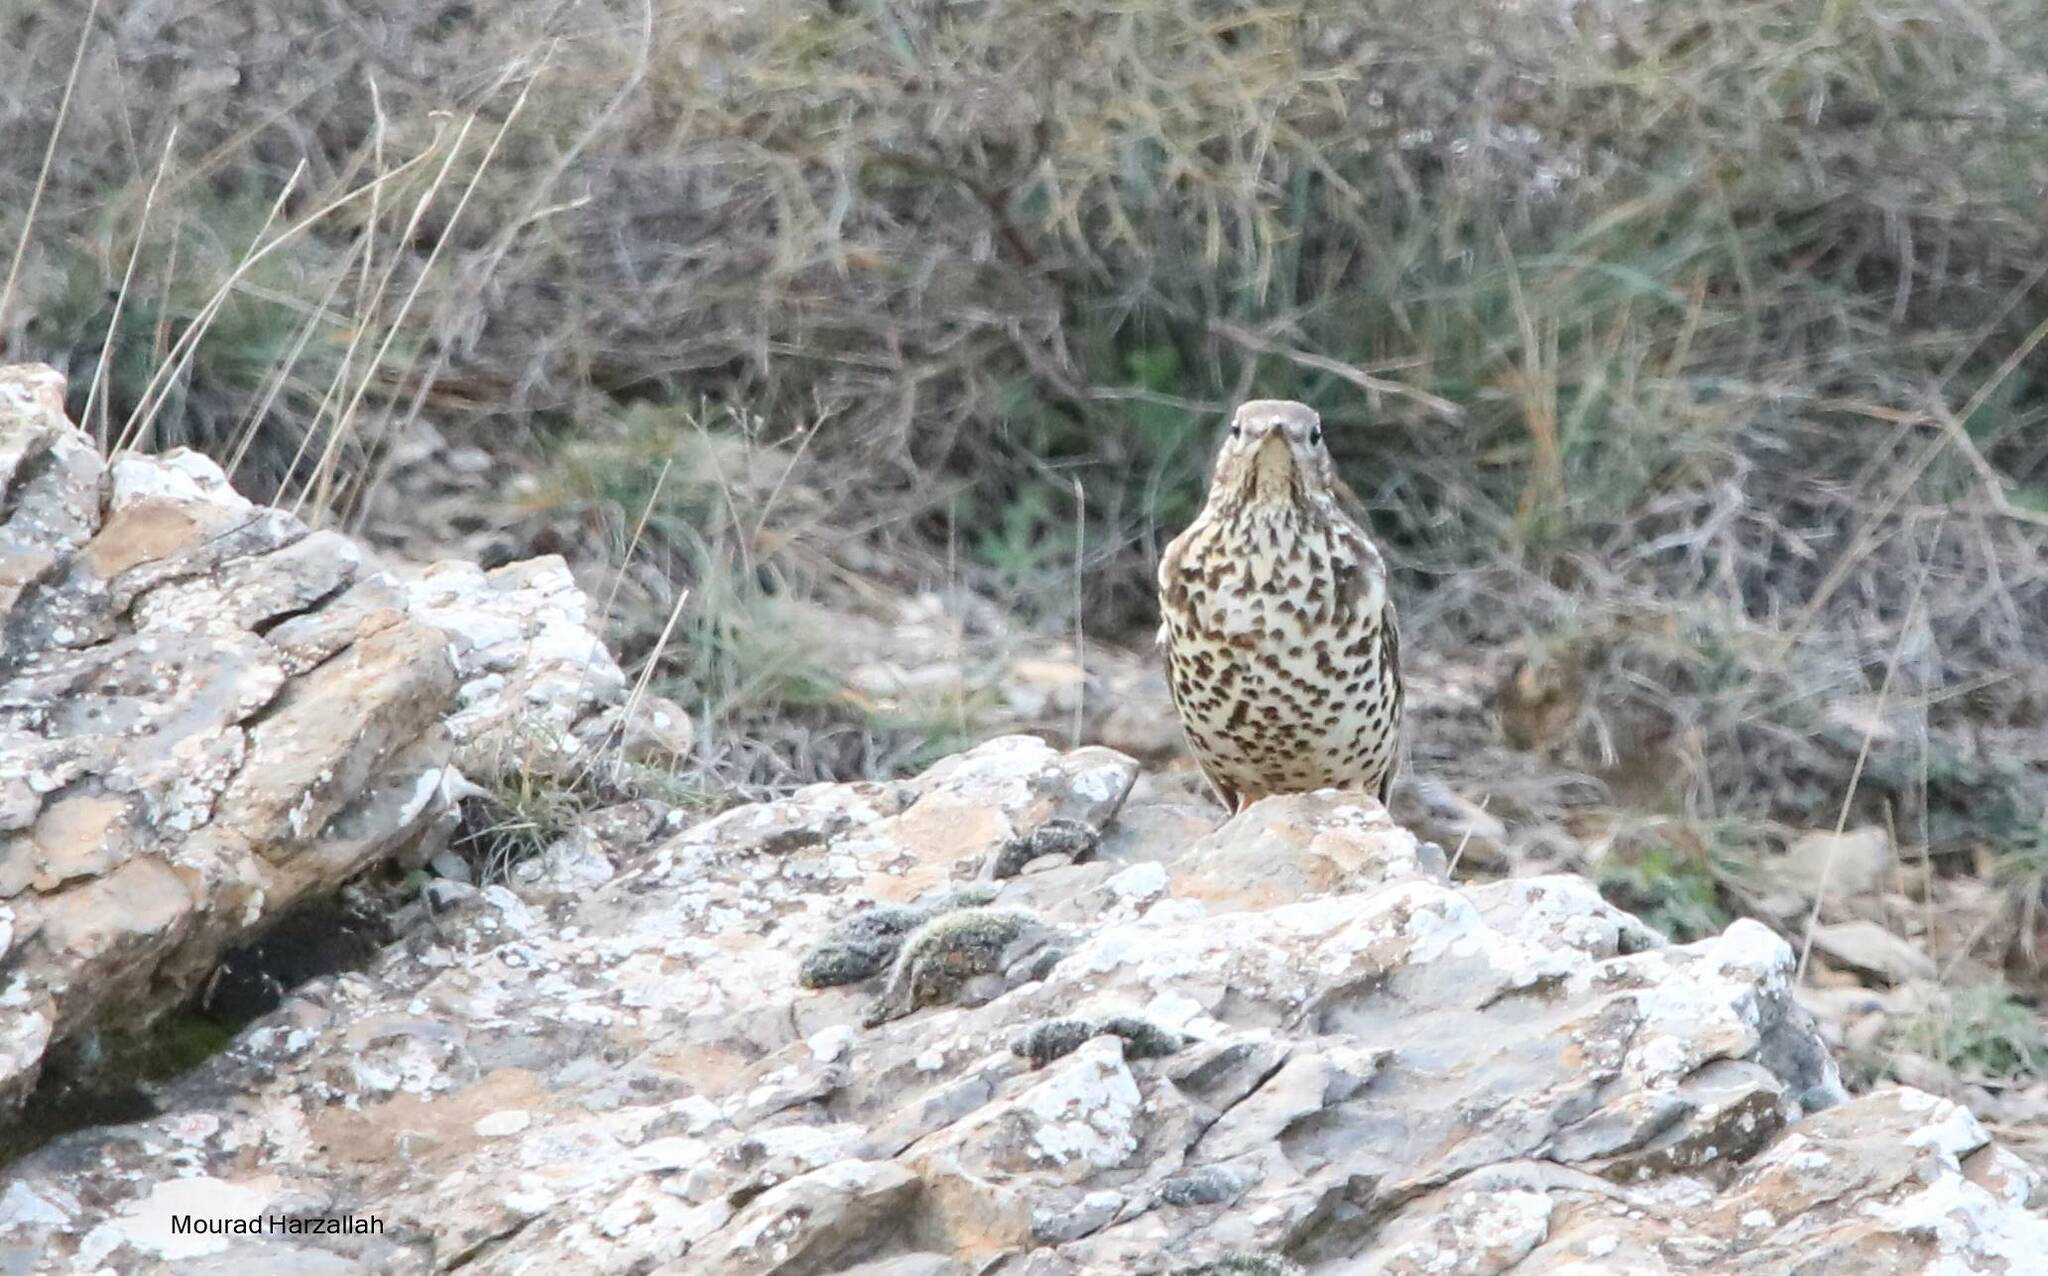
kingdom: Animalia
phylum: Chordata
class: Aves
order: Passeriformes
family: Turdidae
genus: Turdus
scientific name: Turdus viscivorus
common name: Mistle thrush
